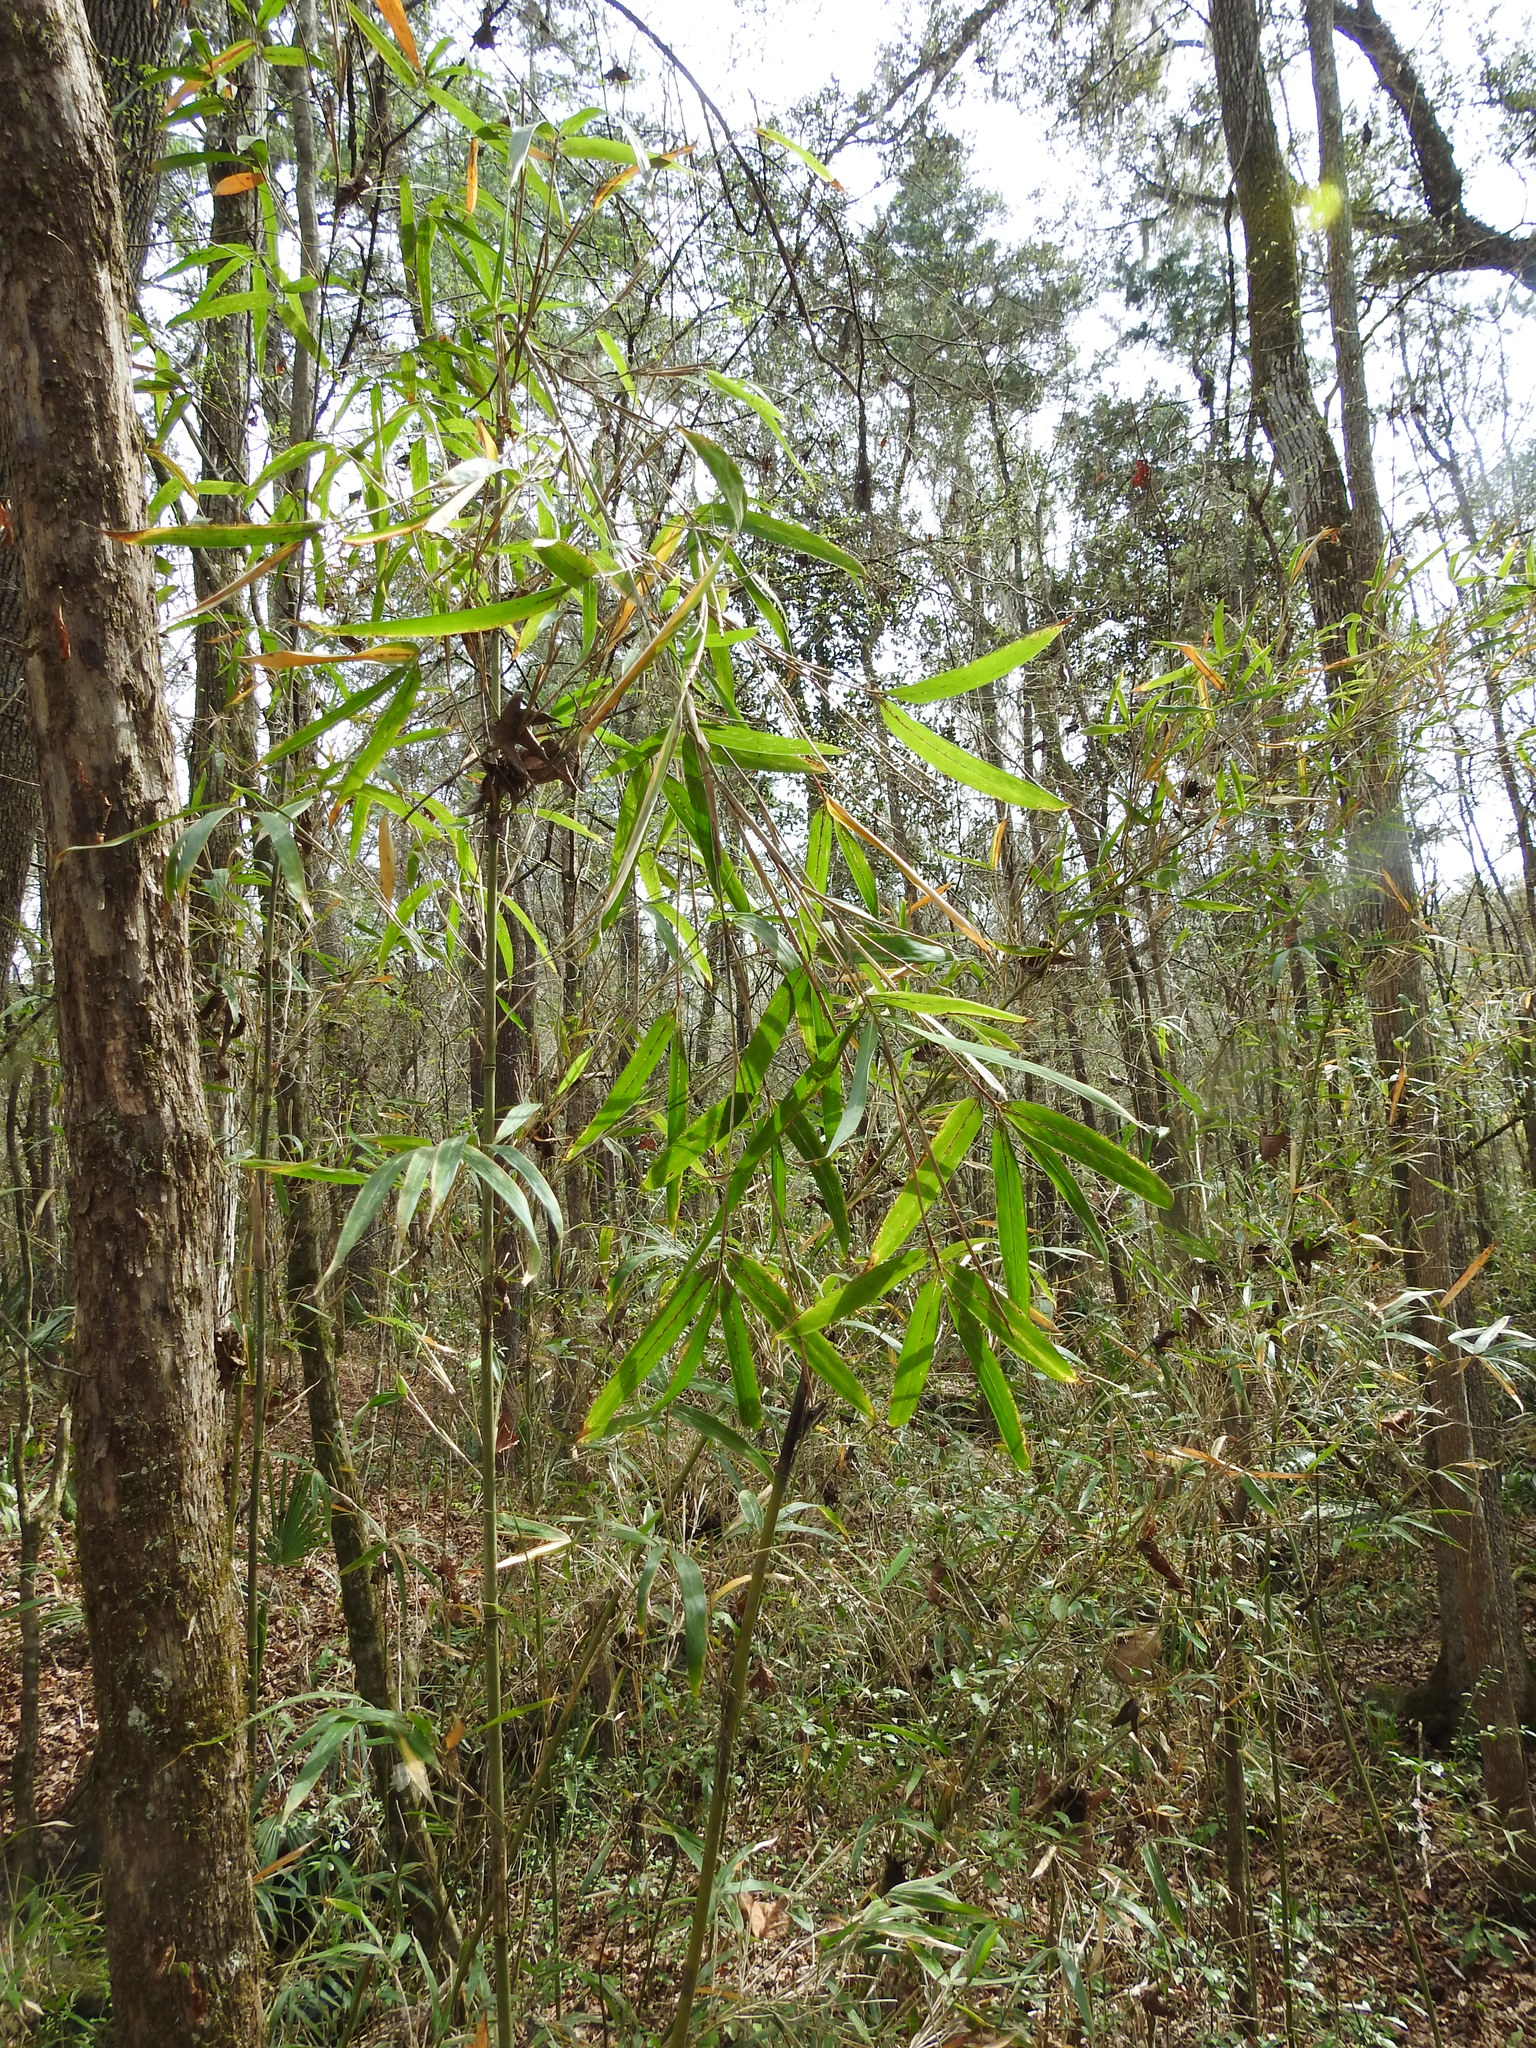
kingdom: Plantae
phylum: Tracheophyta
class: Liliopsida
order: Poales
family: Poaceae
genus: Arundinaria
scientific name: Arundinaria gigantea
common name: Giant cane
